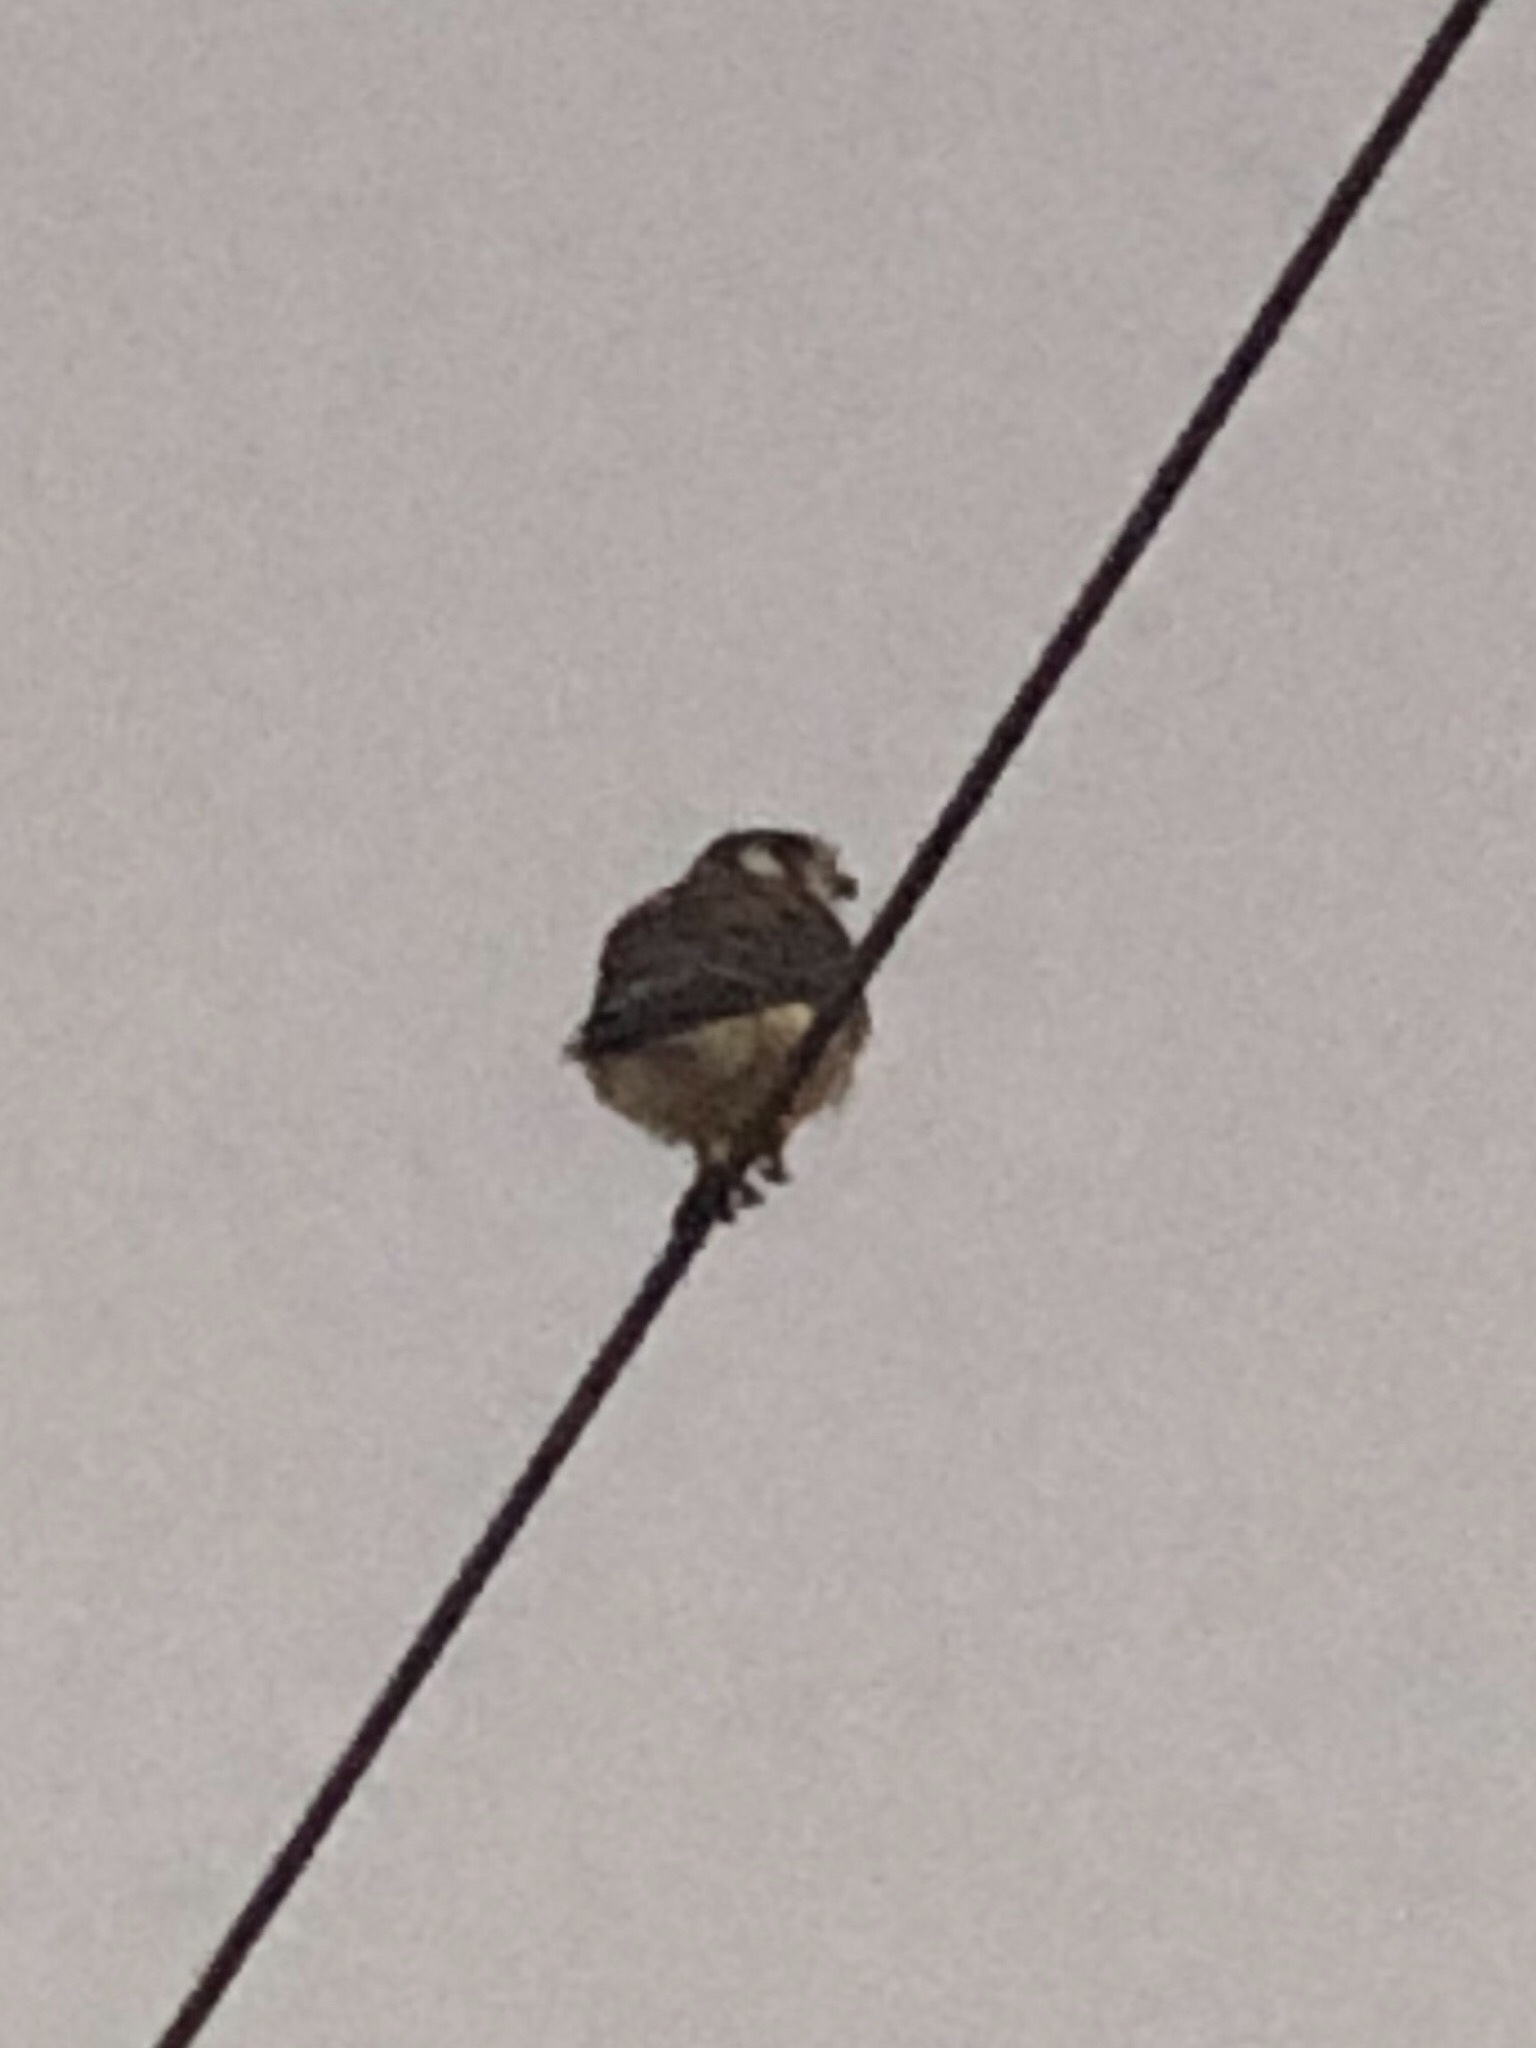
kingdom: Animalia
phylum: Chordata
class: Aves
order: Falconiformes
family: Falconidae
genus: Falco
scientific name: Falco sparverius
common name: American kestrel
